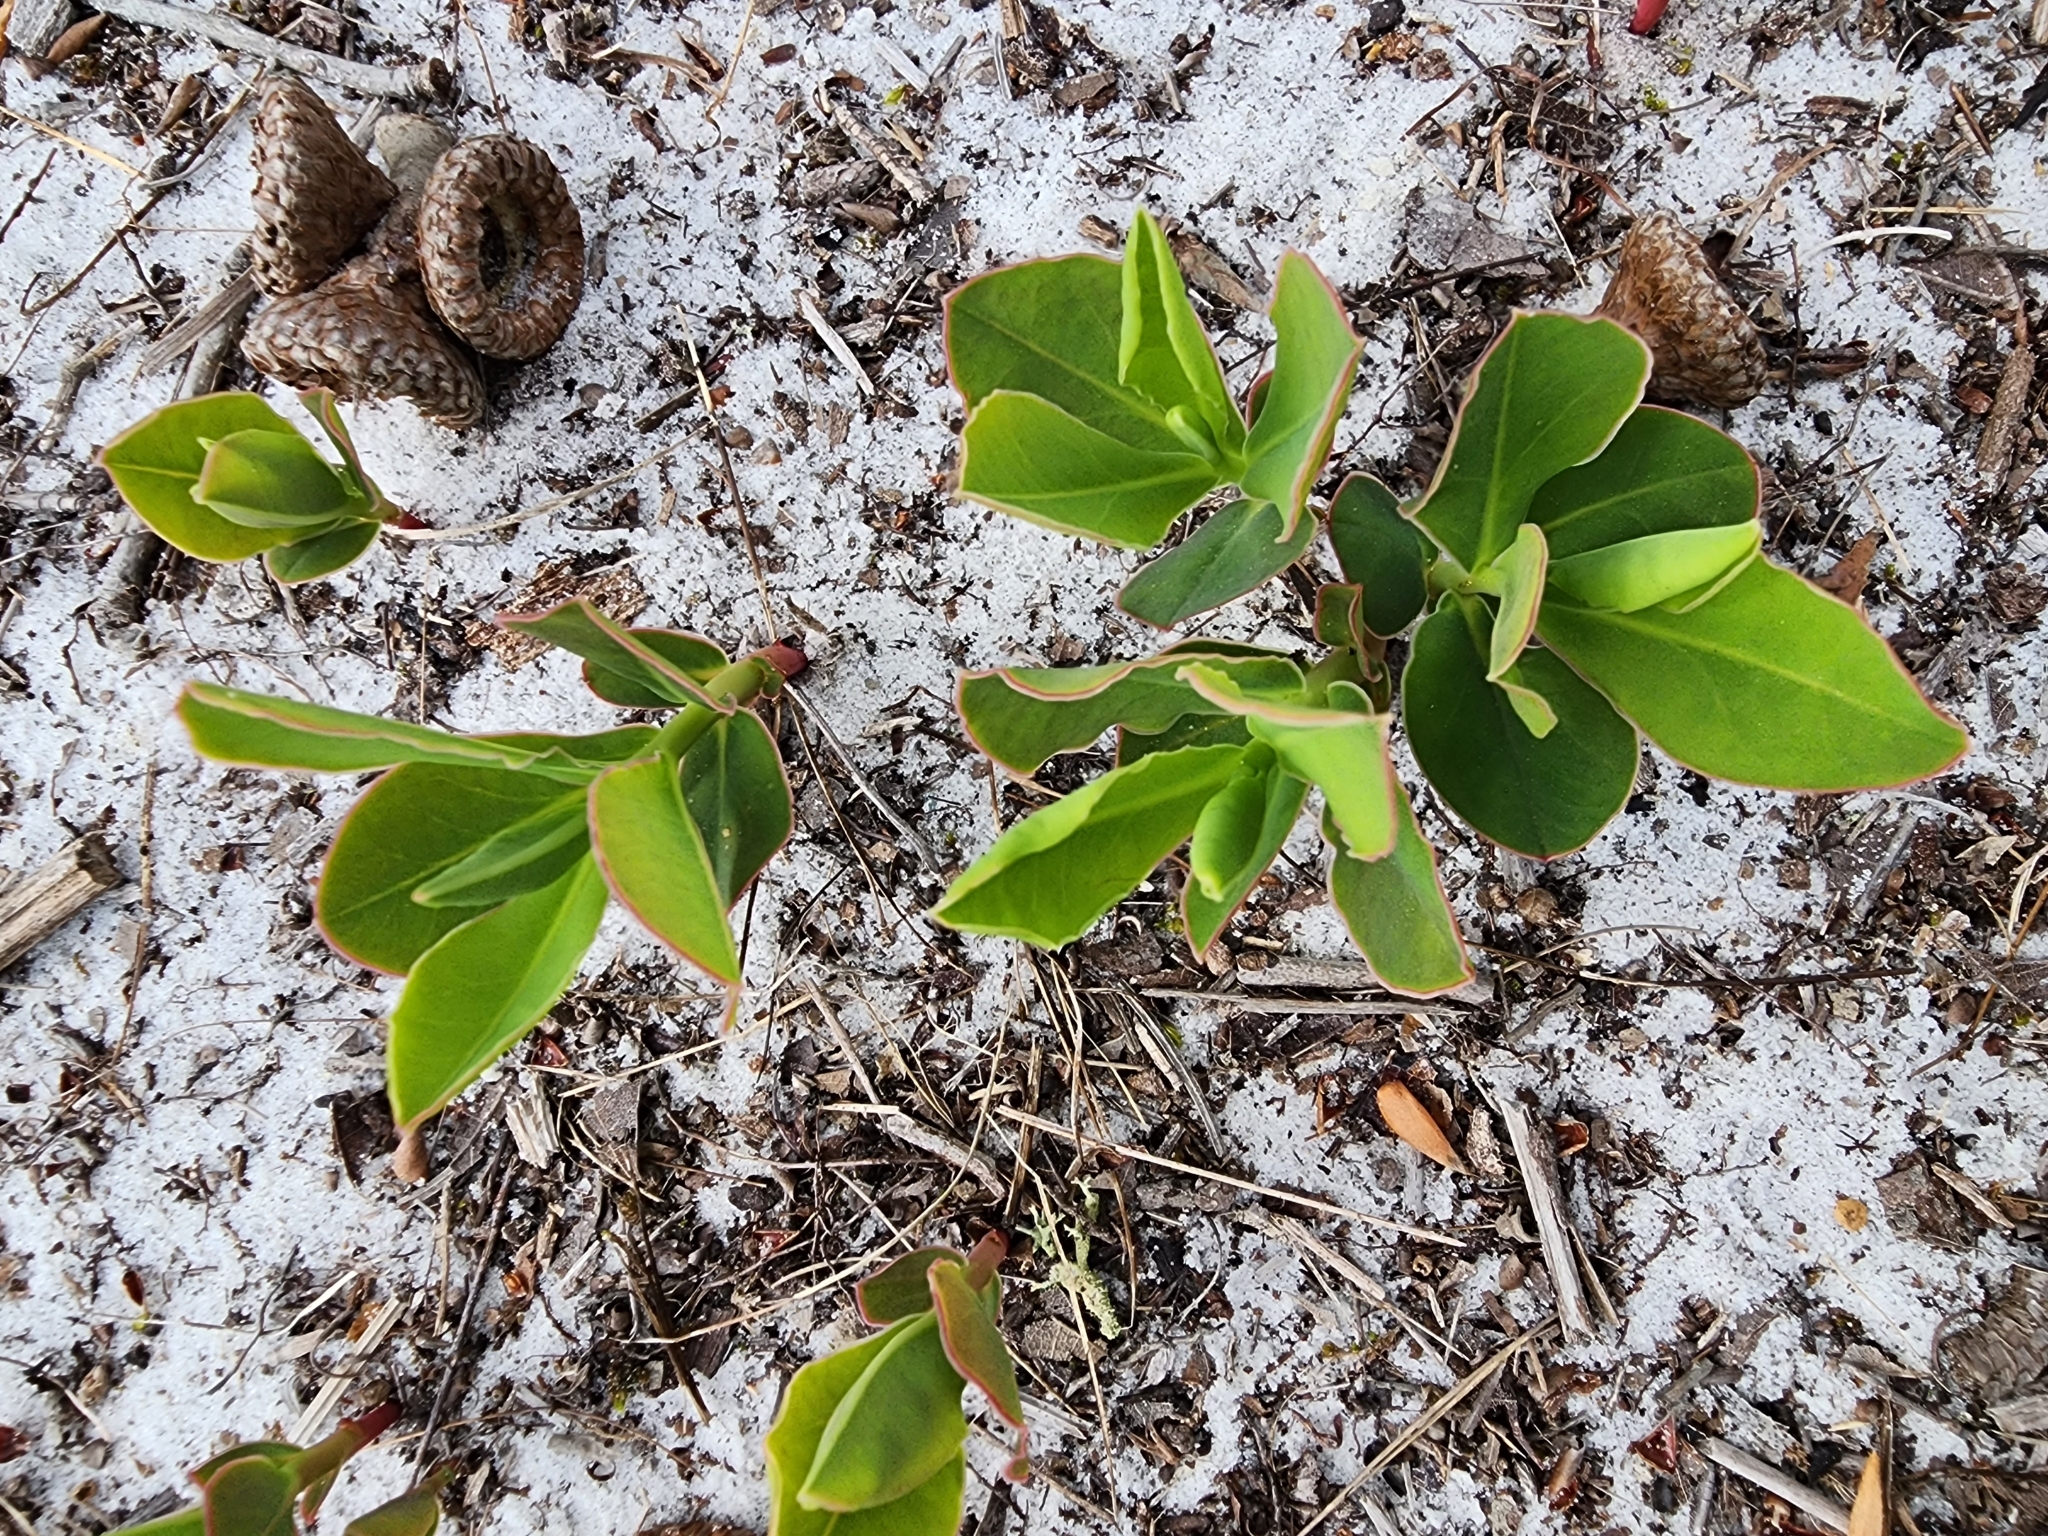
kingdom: Plantae
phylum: Tracheophyta
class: Magnoliopsida
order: Malpighiales
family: Euphorbiaceae
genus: Euphorbia
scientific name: Euphorbia telephioides
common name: Telephus spurge
